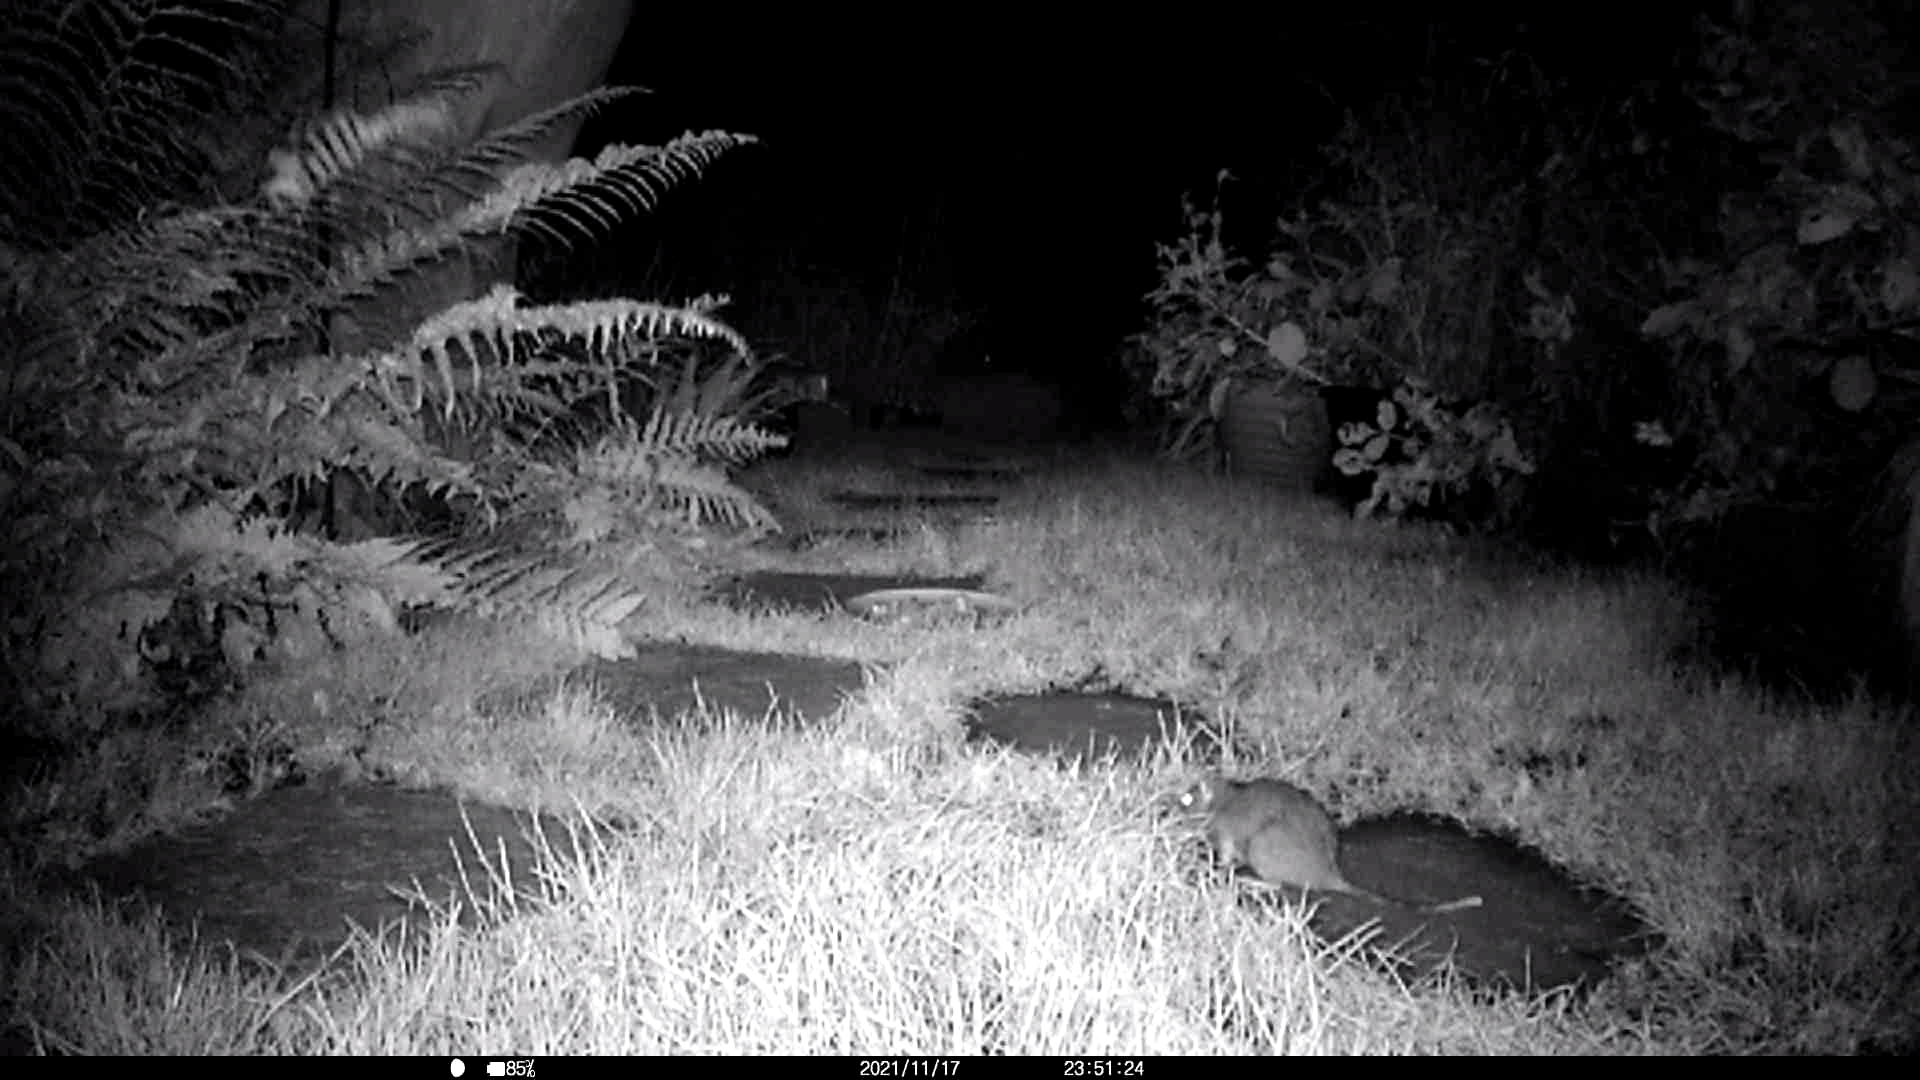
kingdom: Animalia
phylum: Chordata
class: Mammalia
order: Rodentia
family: Muridae
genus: Rattus
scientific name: Rattus norvegicus
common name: Brown rat
